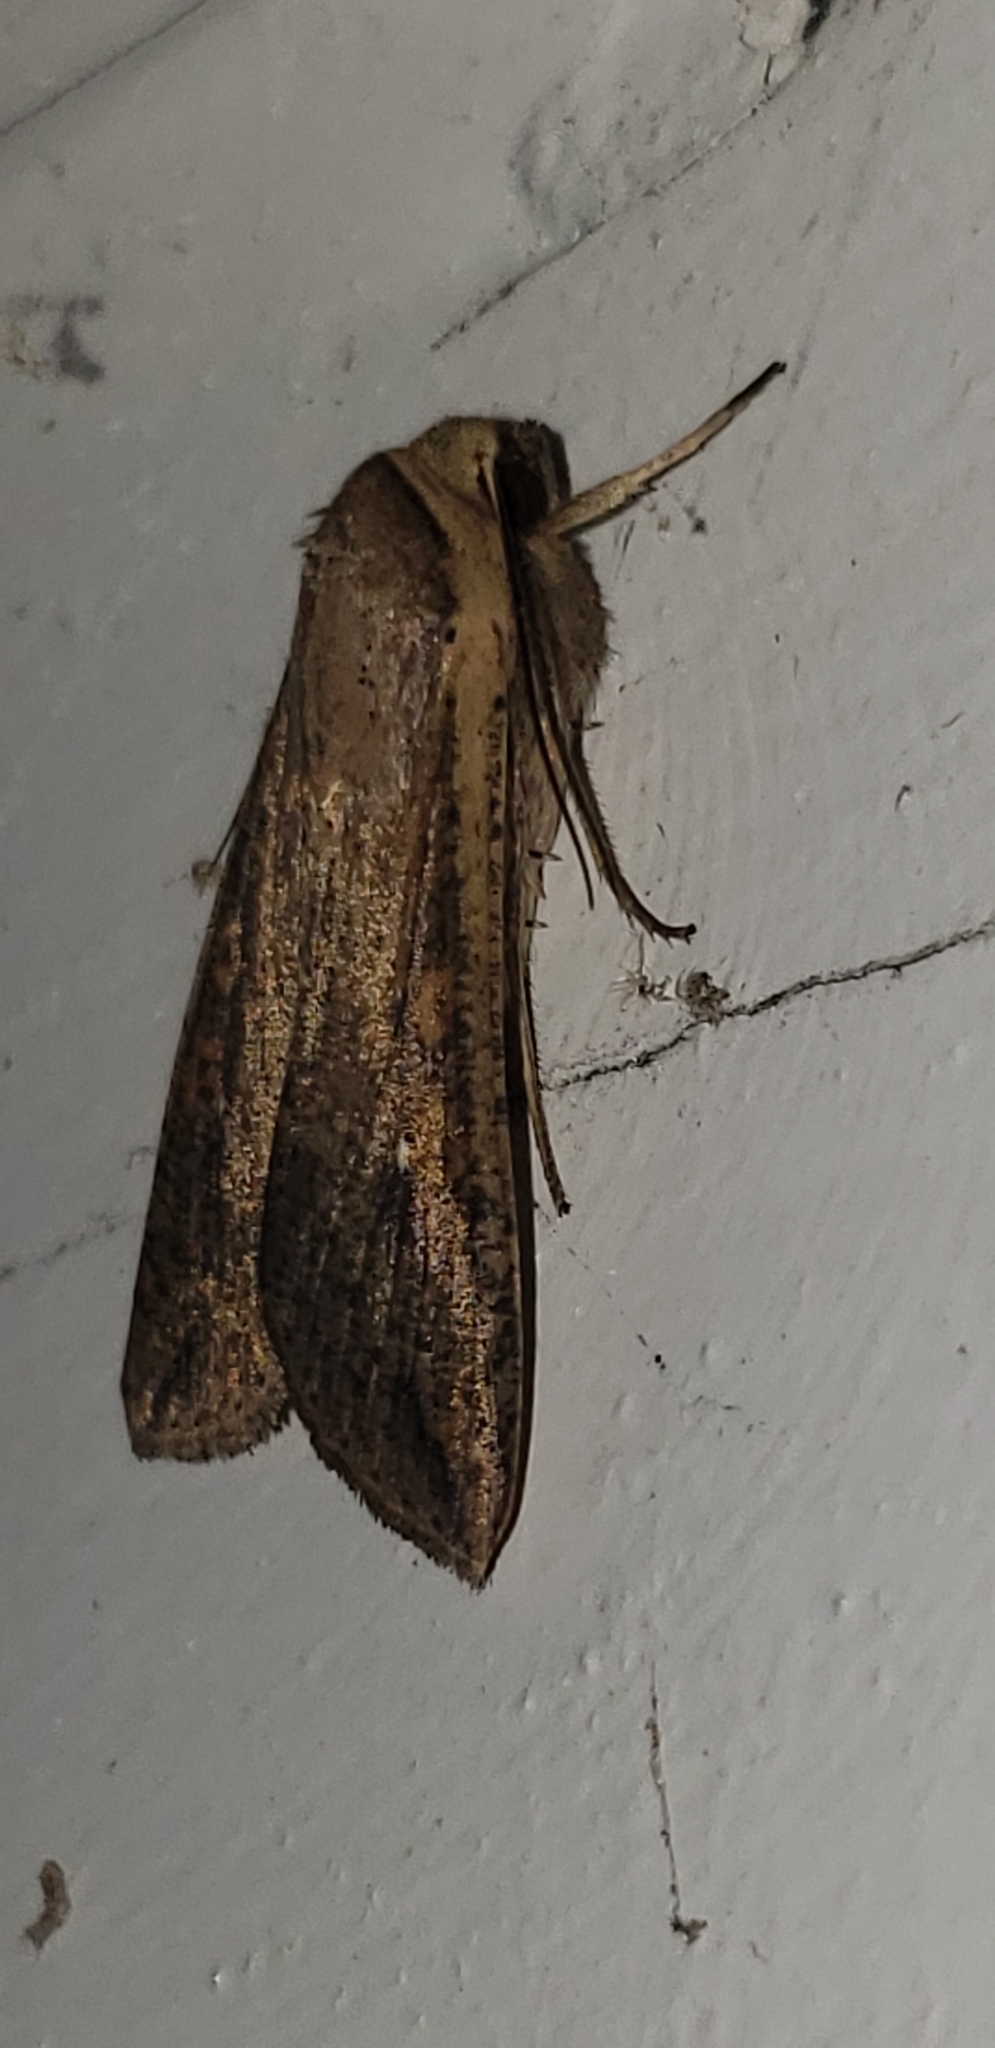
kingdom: Animalia
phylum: Arthropoda
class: Insecta
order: Lepidoptera
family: Noctuidae
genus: Mythimna
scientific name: Mythimna unipuncta
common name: White-speck
